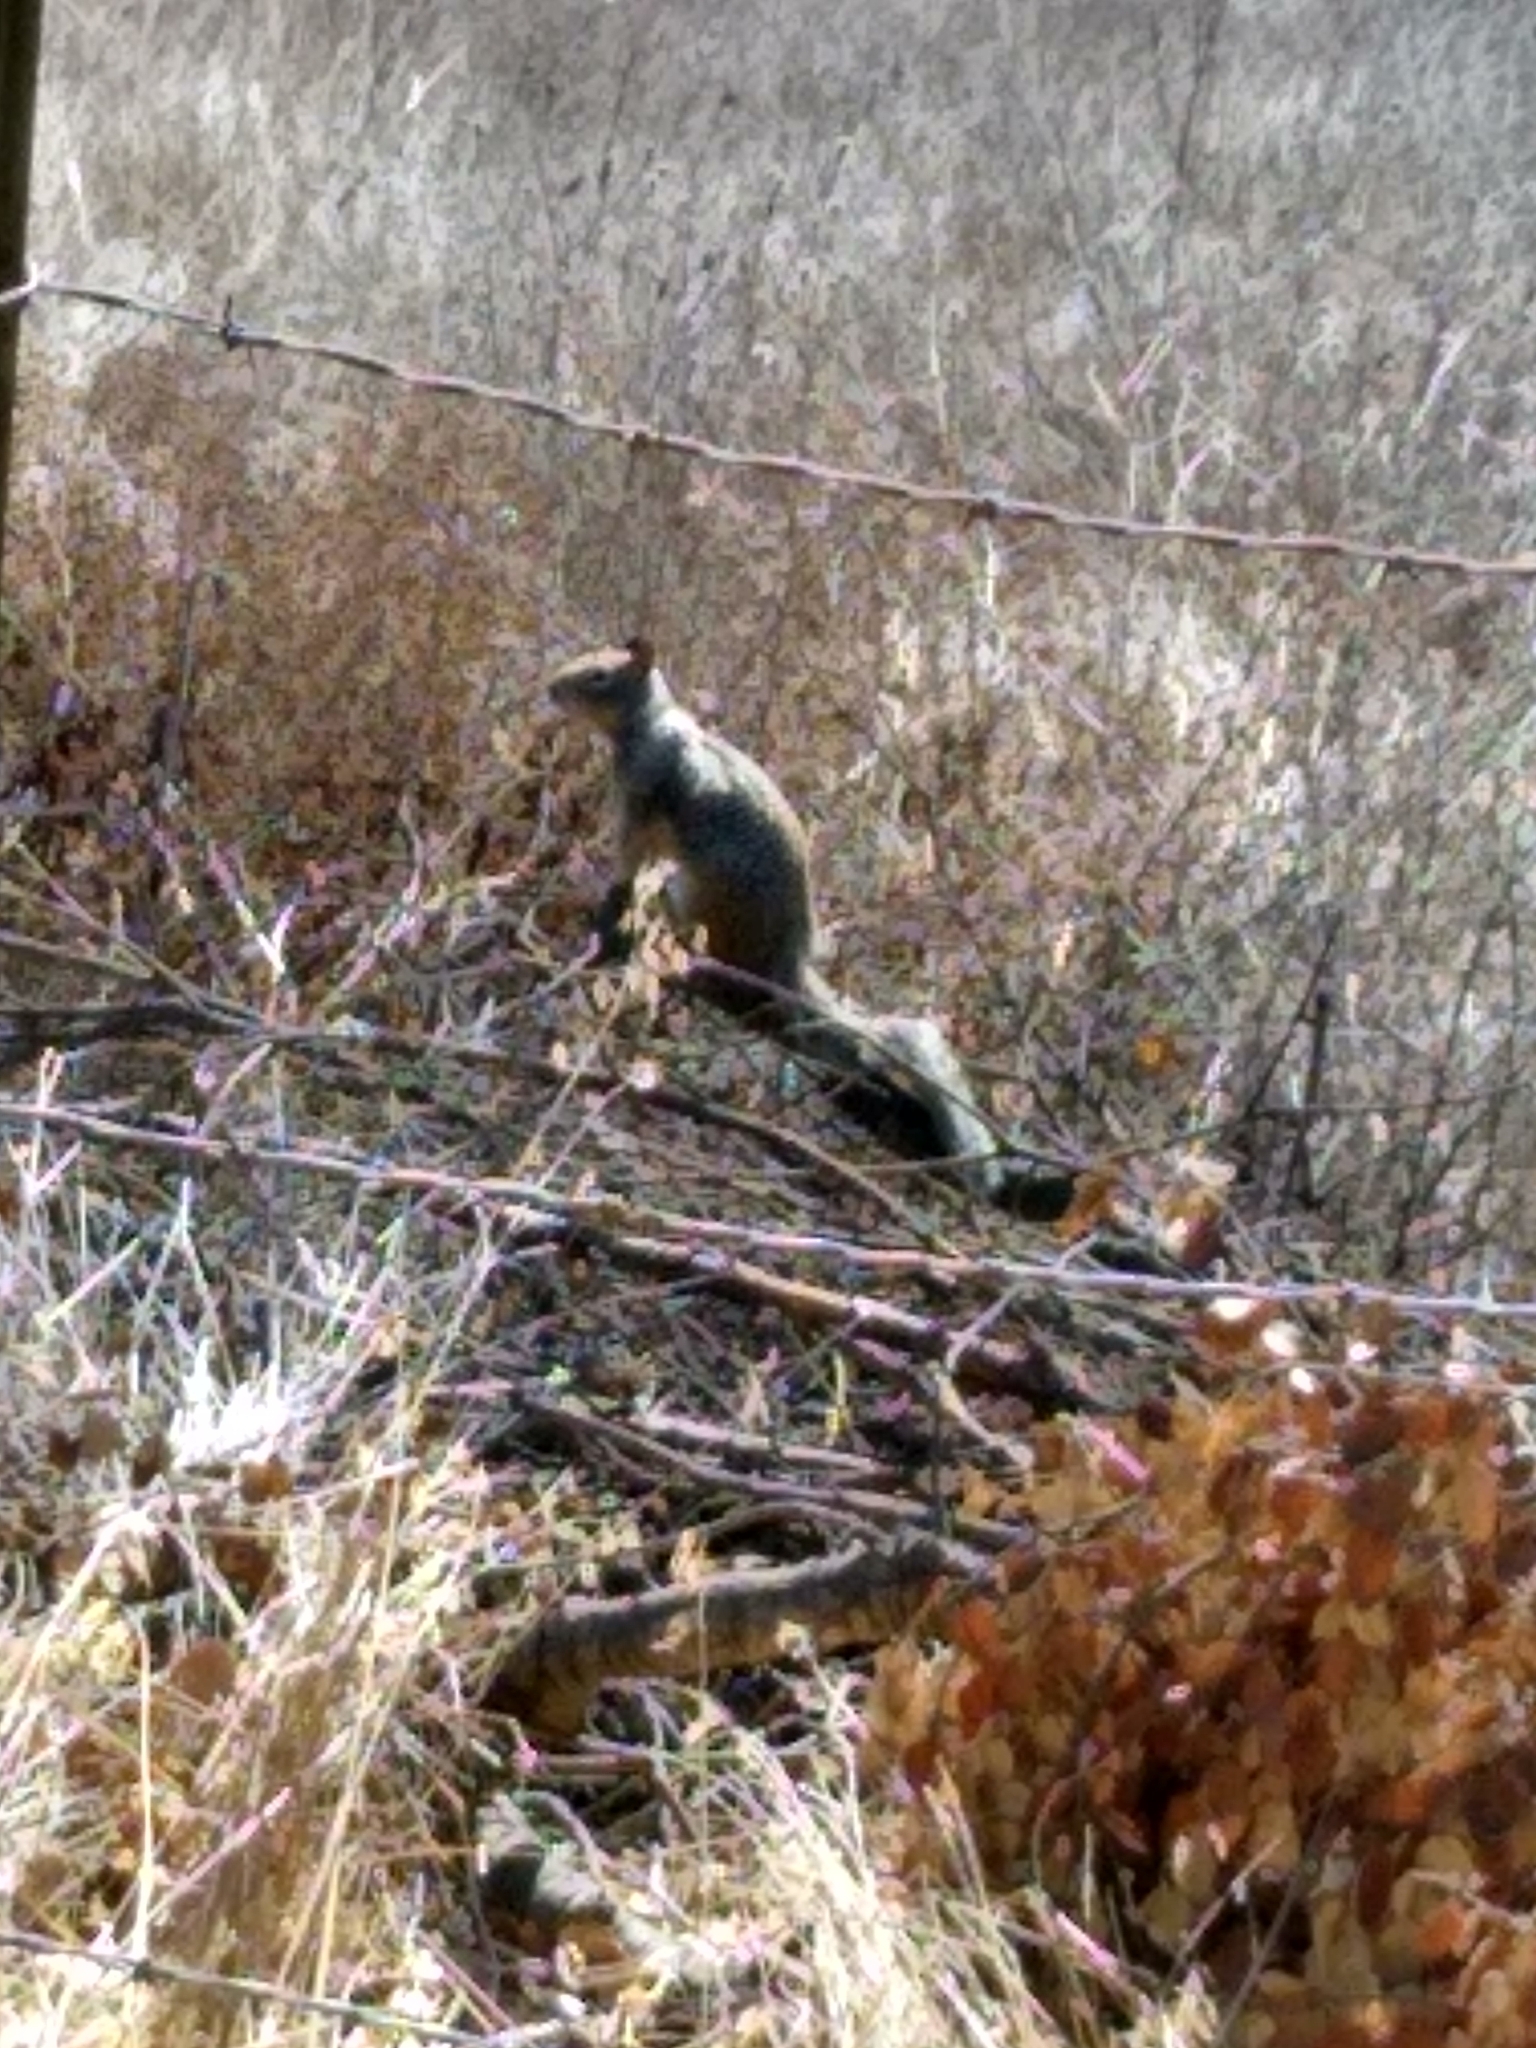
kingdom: Animalia
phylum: Chordata
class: Mammalia
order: Rodentia
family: Sciuridae
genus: Otospermophilus
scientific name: Otospermophilus beecheyi
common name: California ground squirrel
